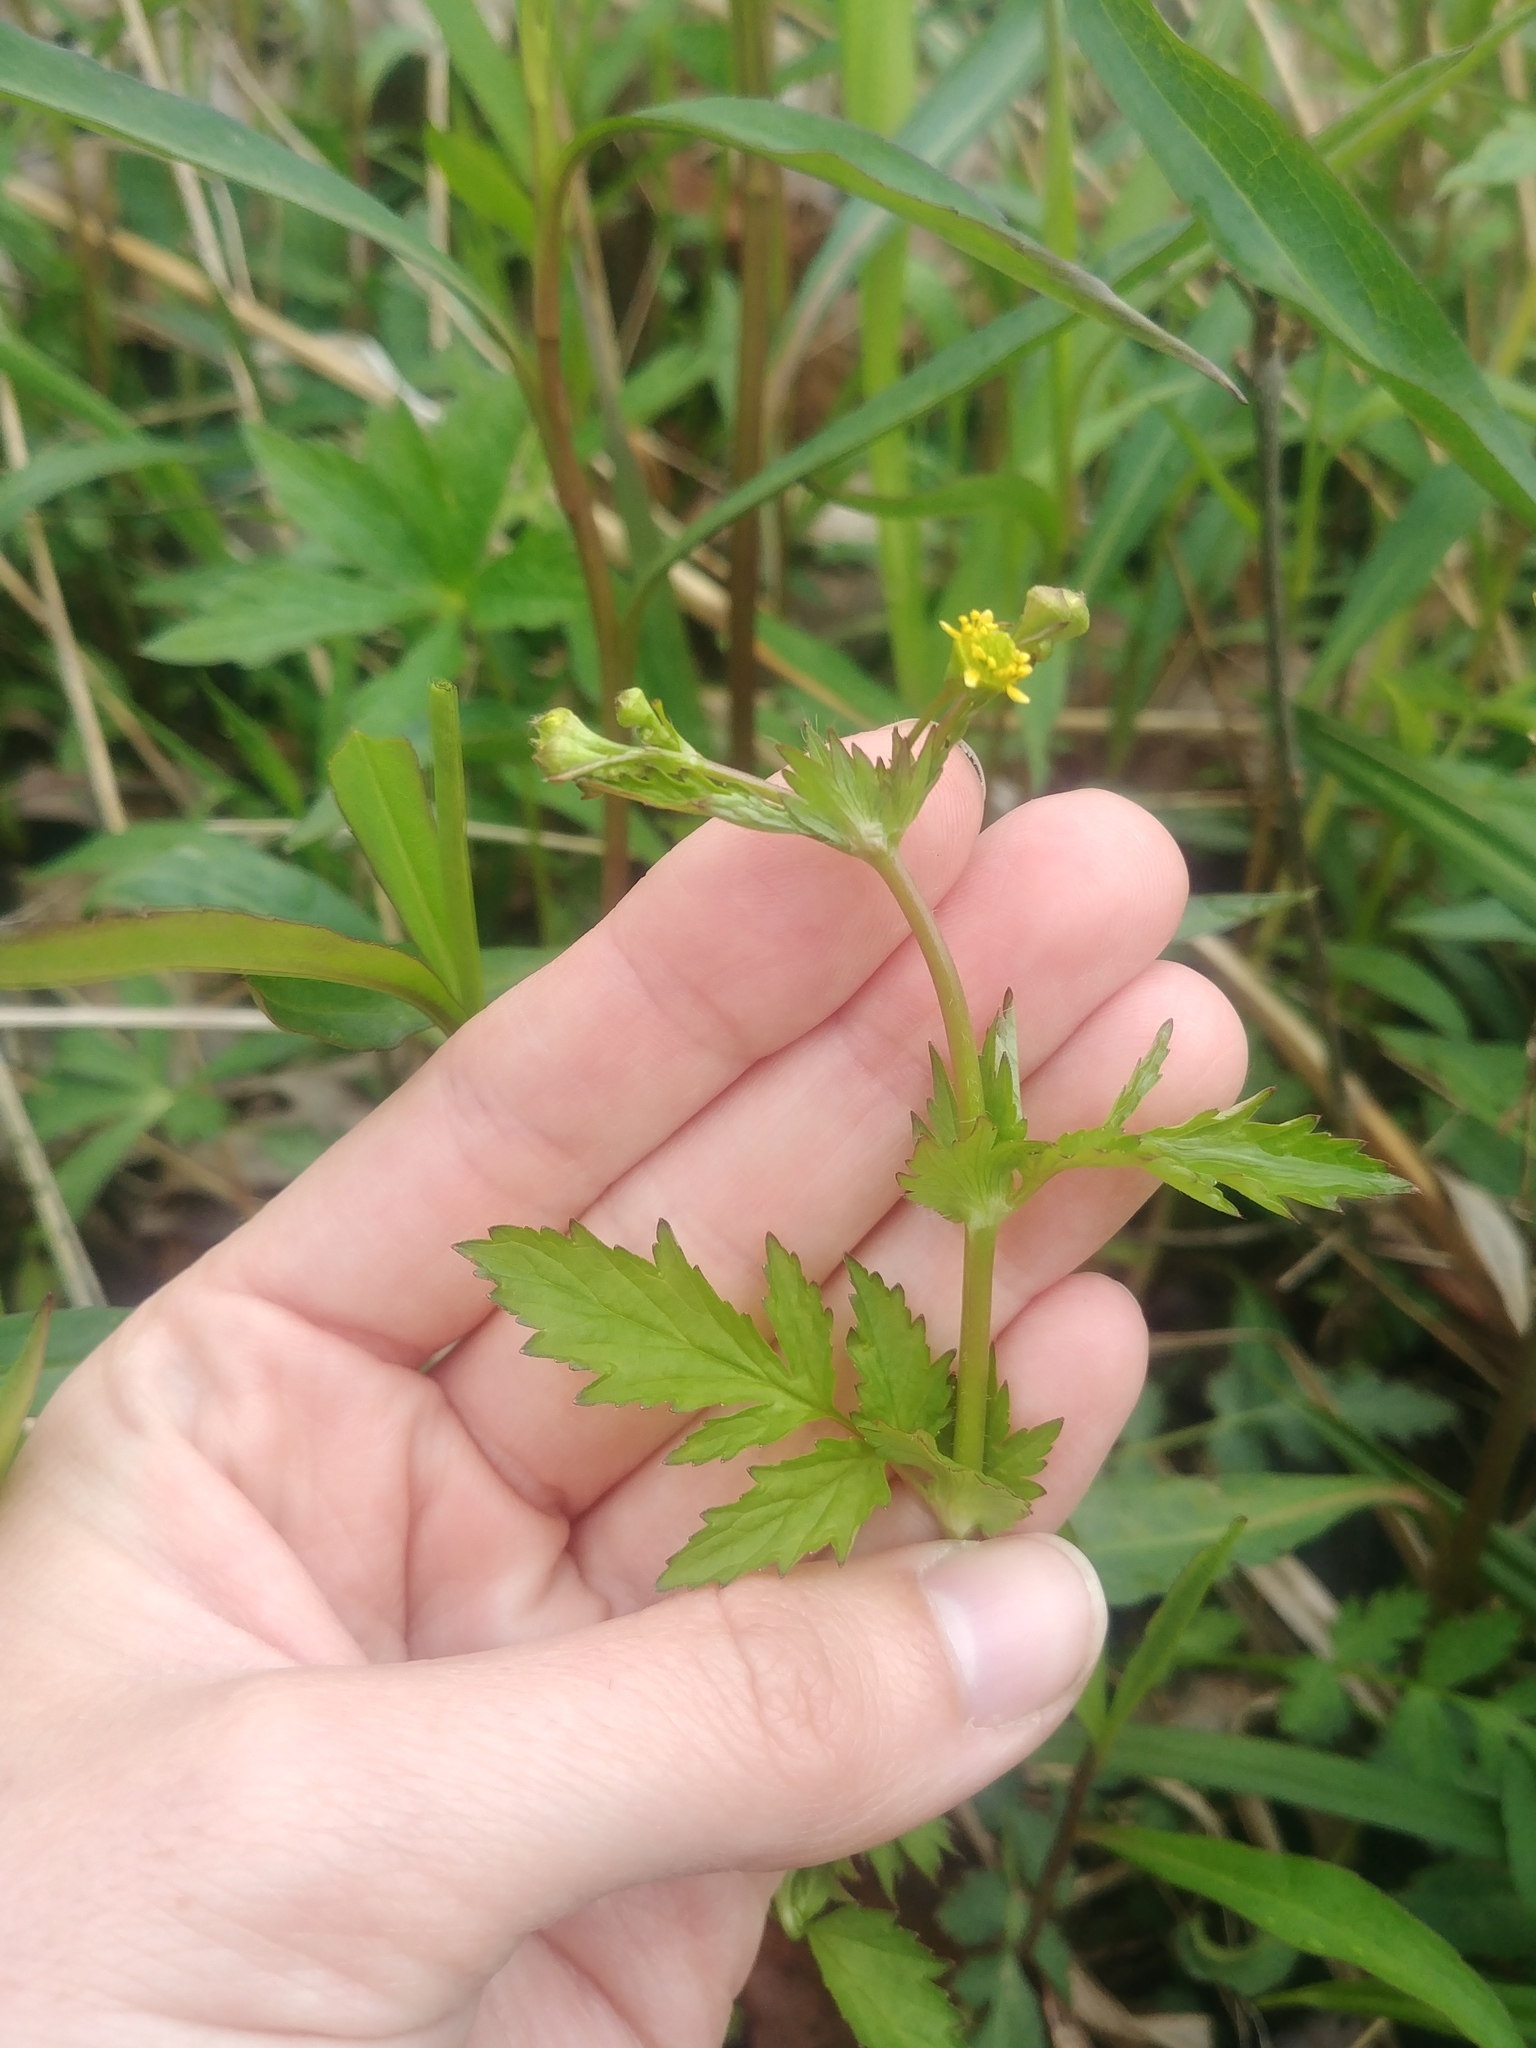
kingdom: Plantae
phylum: Tracheophyta
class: Magnoliopsida
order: Rosales
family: Rosaceae
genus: Geum
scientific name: Geum vernum
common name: Spring avens
